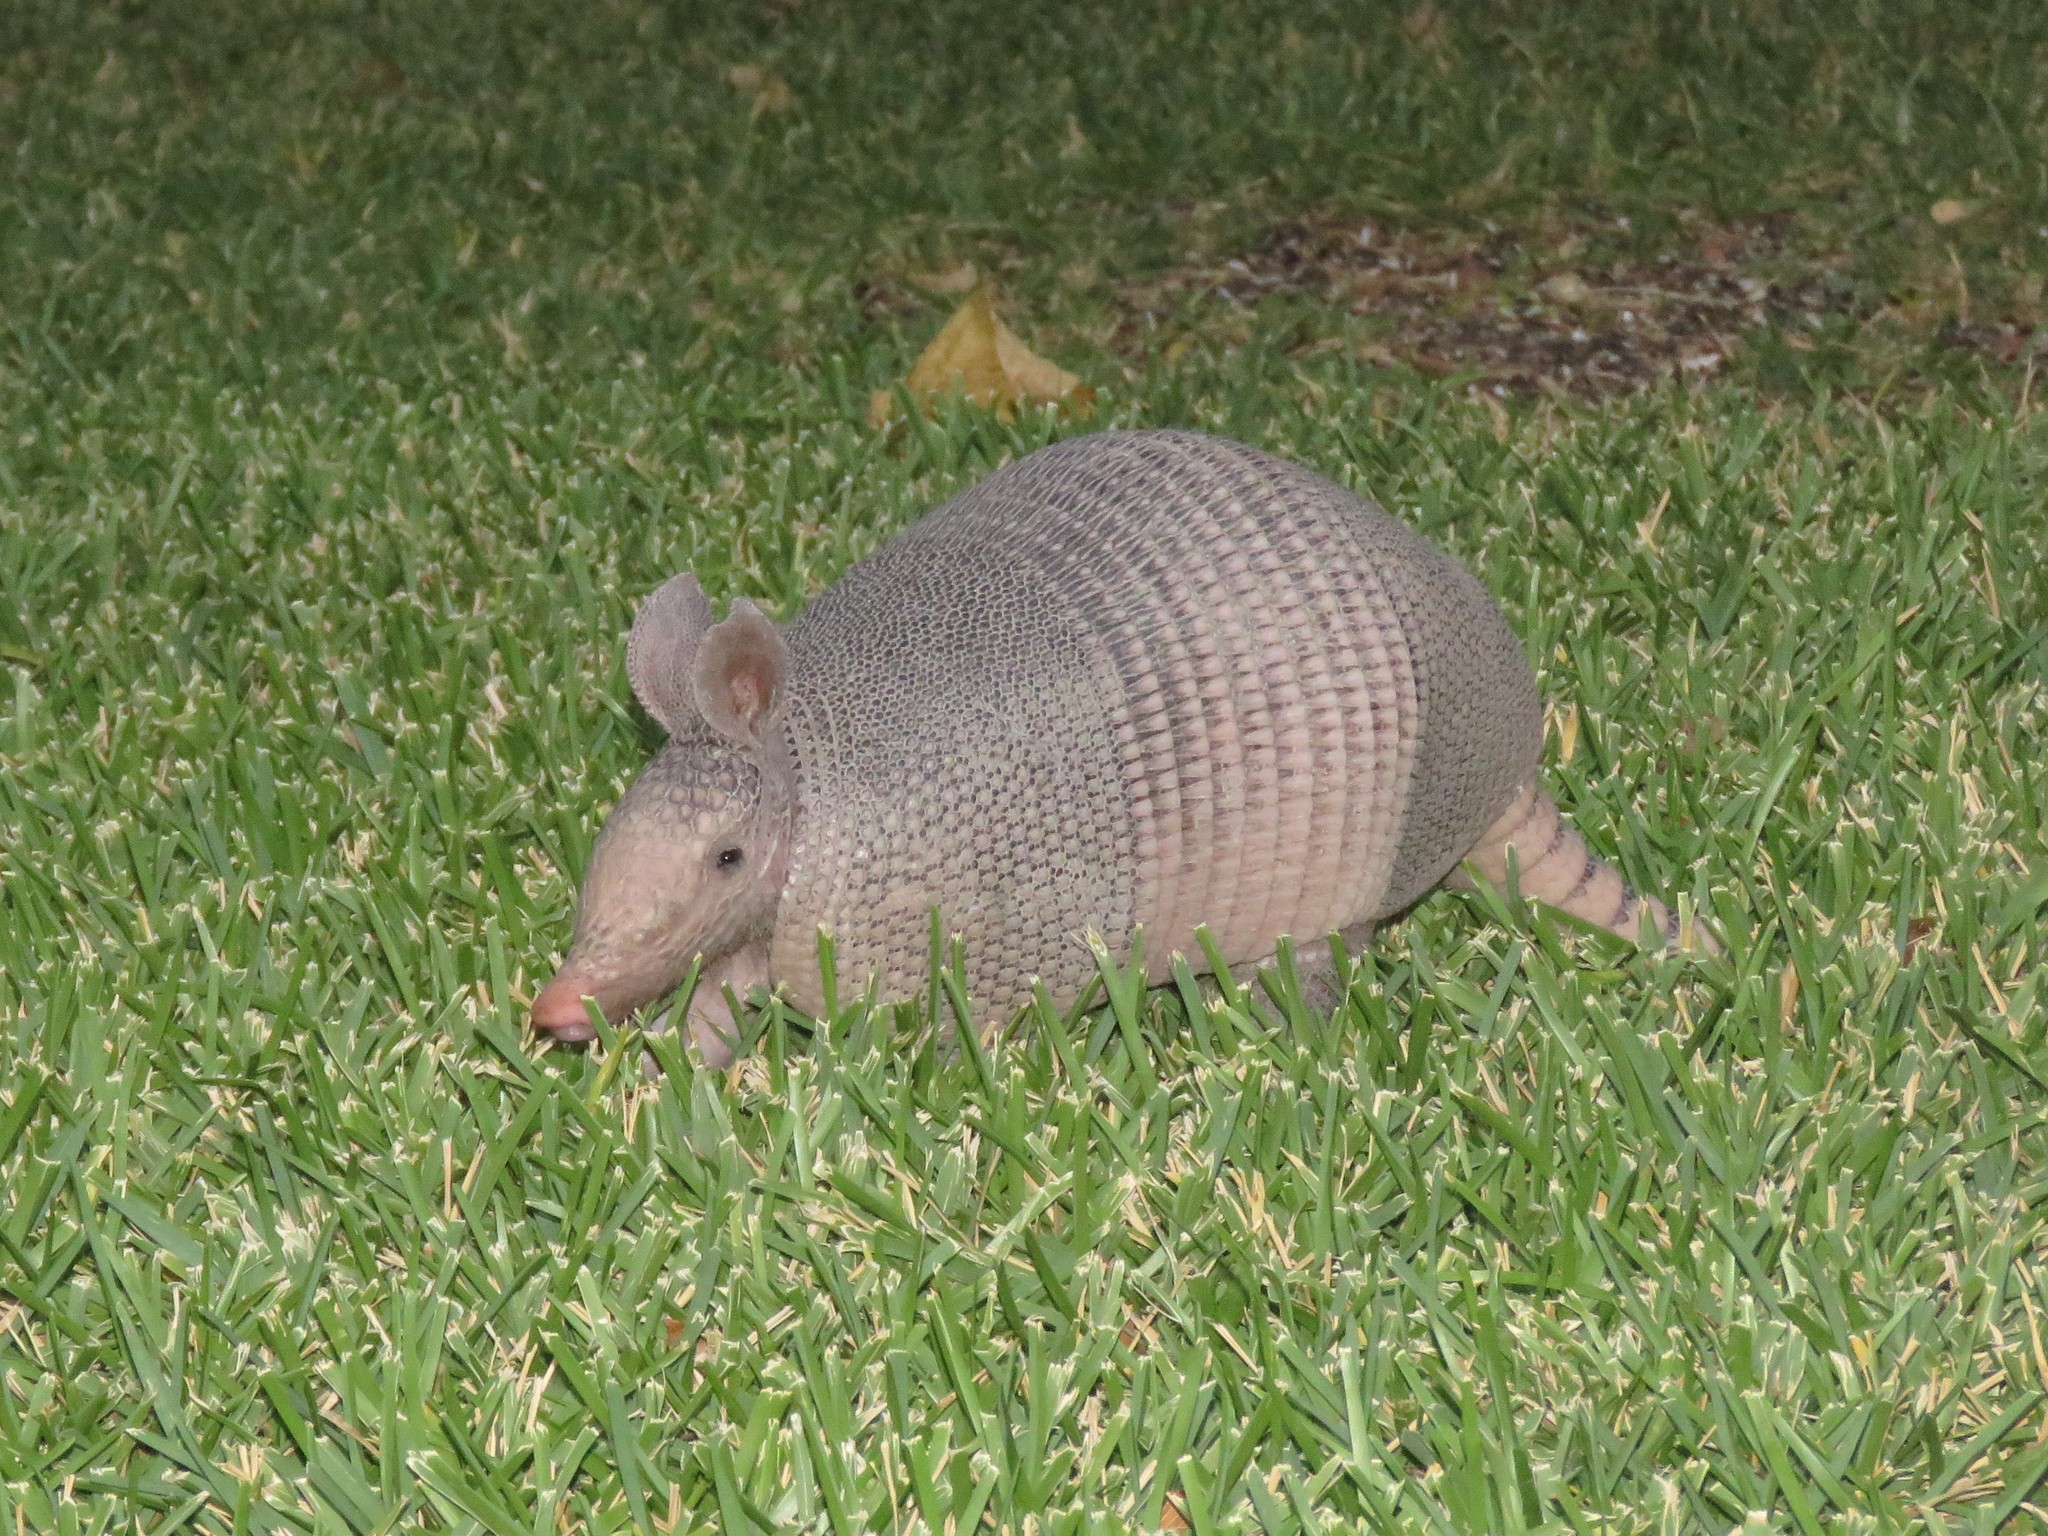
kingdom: Animalia
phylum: Chordata
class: Mammalia
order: Cingulata
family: Dasypodidae
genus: Dasypus
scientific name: Dasypus novemcinctus
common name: Nine-banded armadillo
